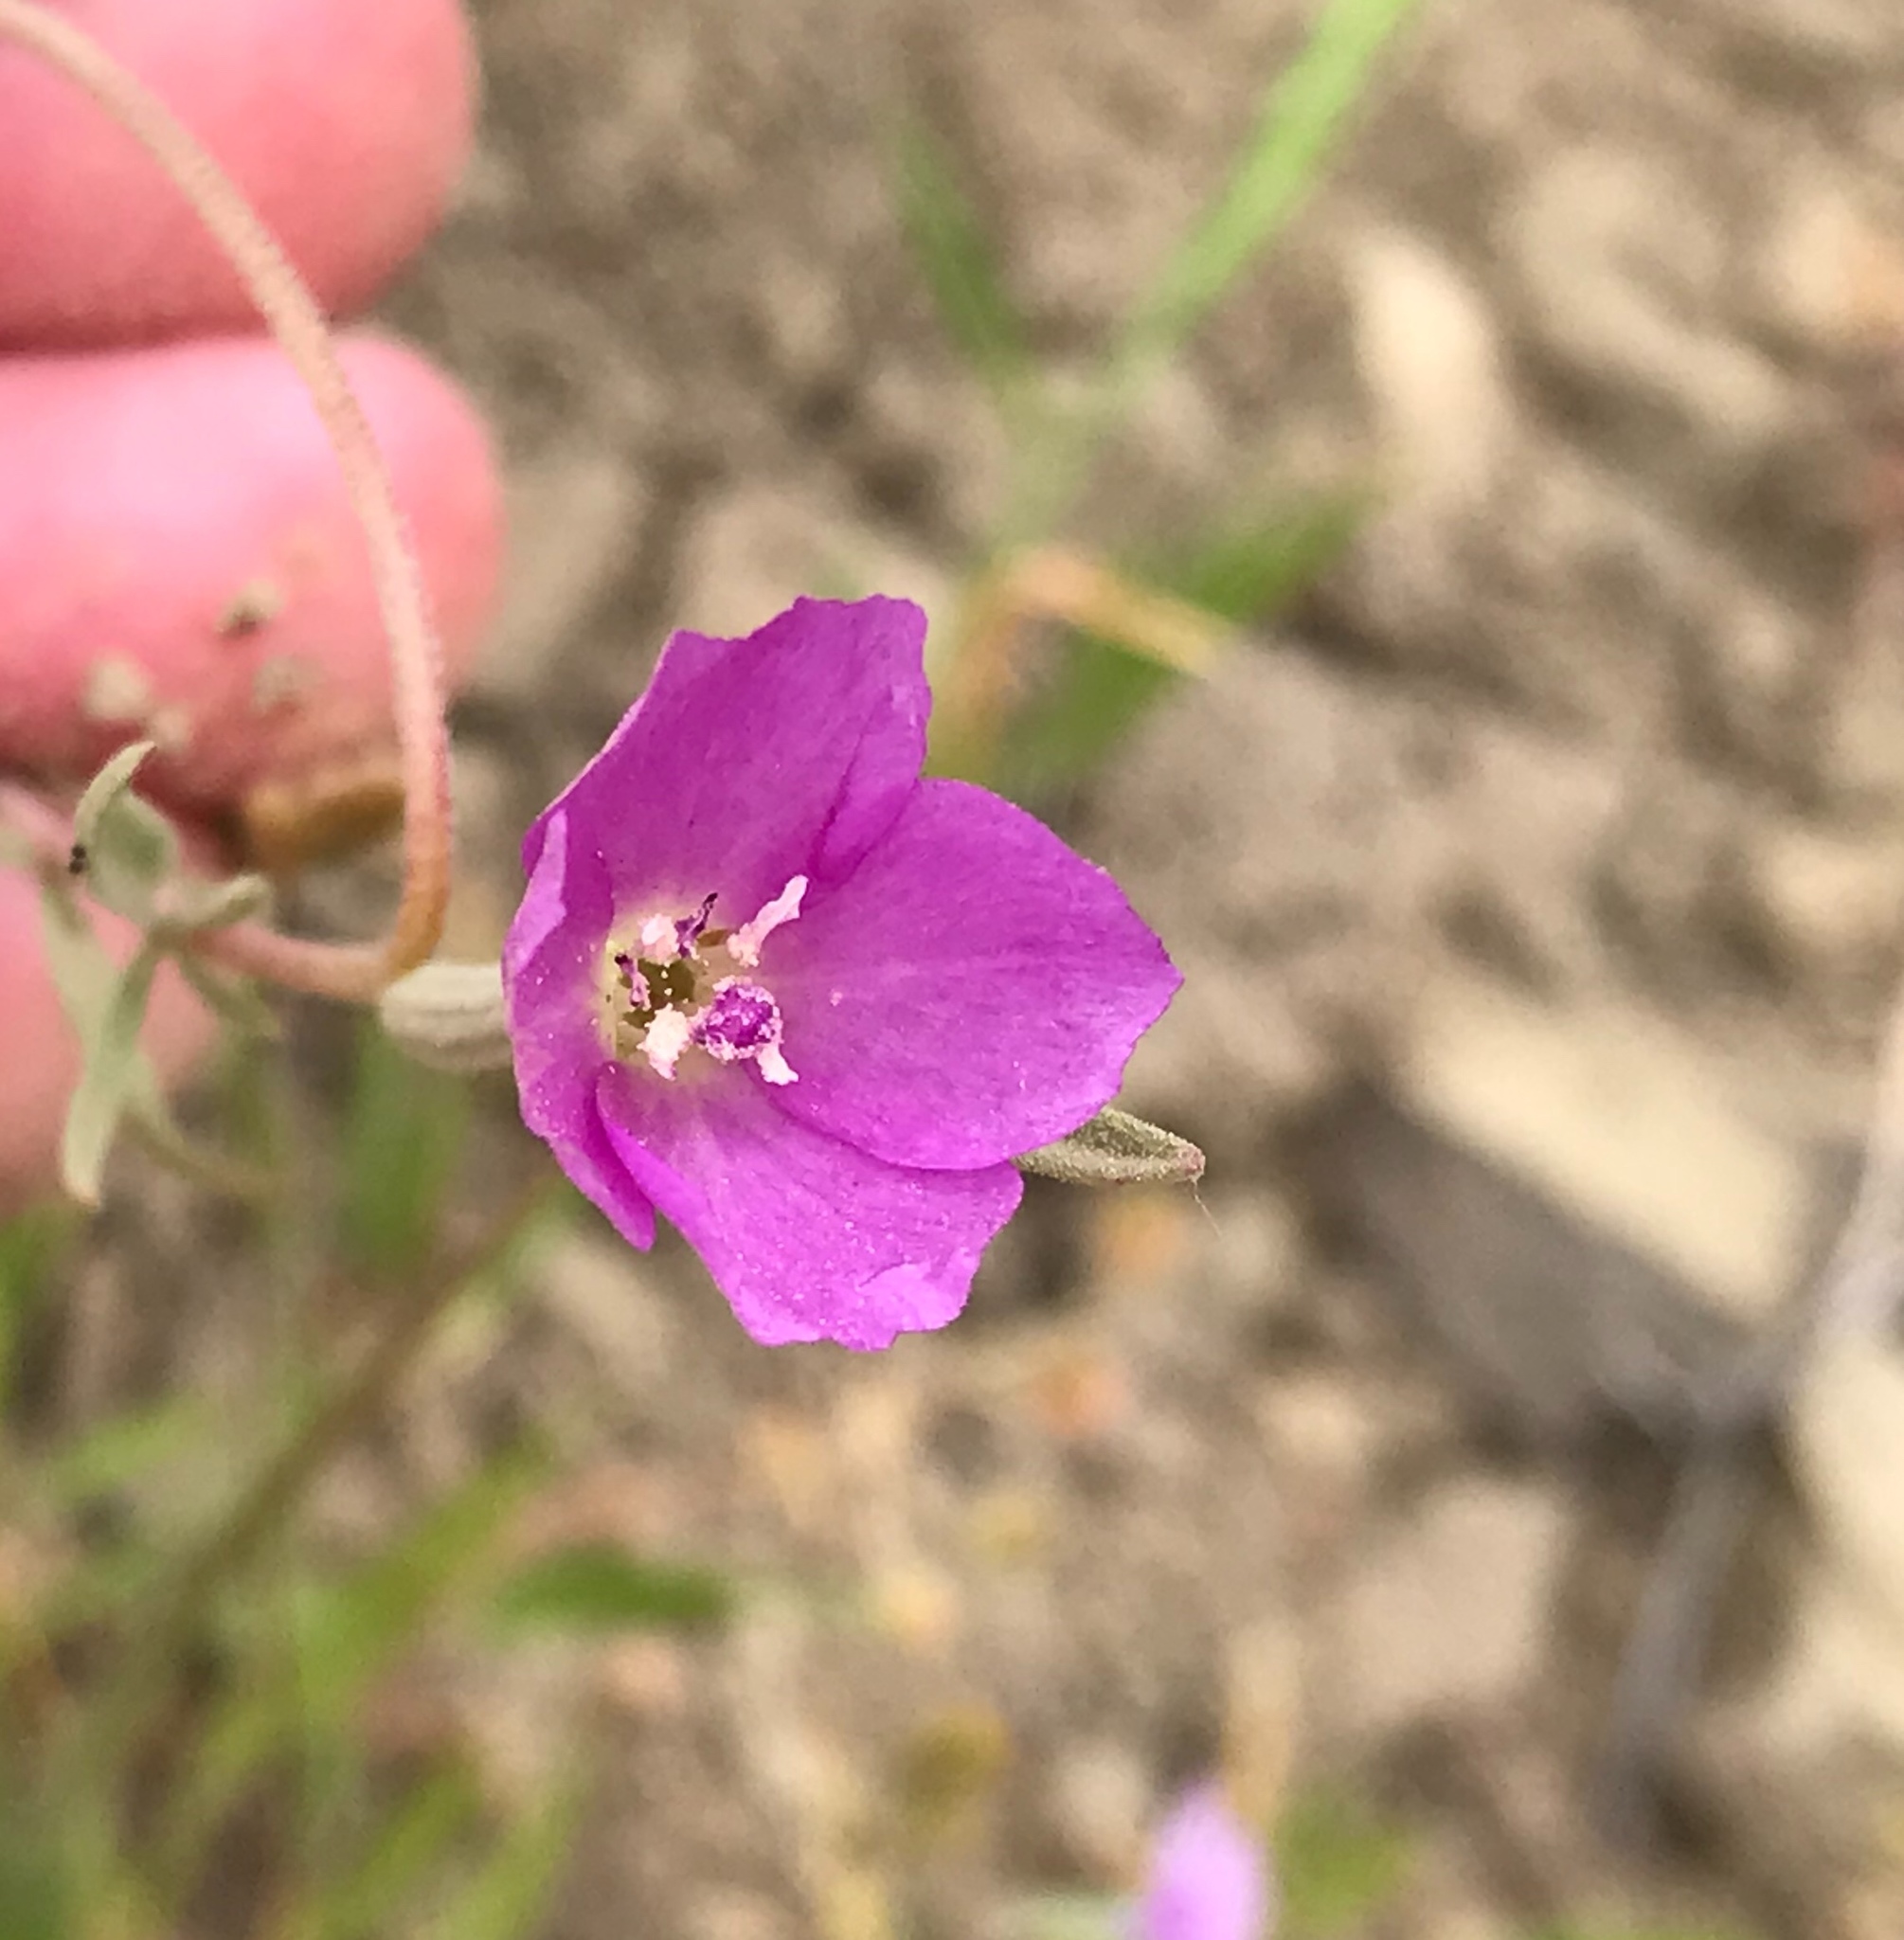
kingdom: Plantae
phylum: Tracheophyta
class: Magnoliopsida
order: Myrtales
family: Onagraceae
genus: Clarkia
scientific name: Clarkia purpurea
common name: Purple clarkia
